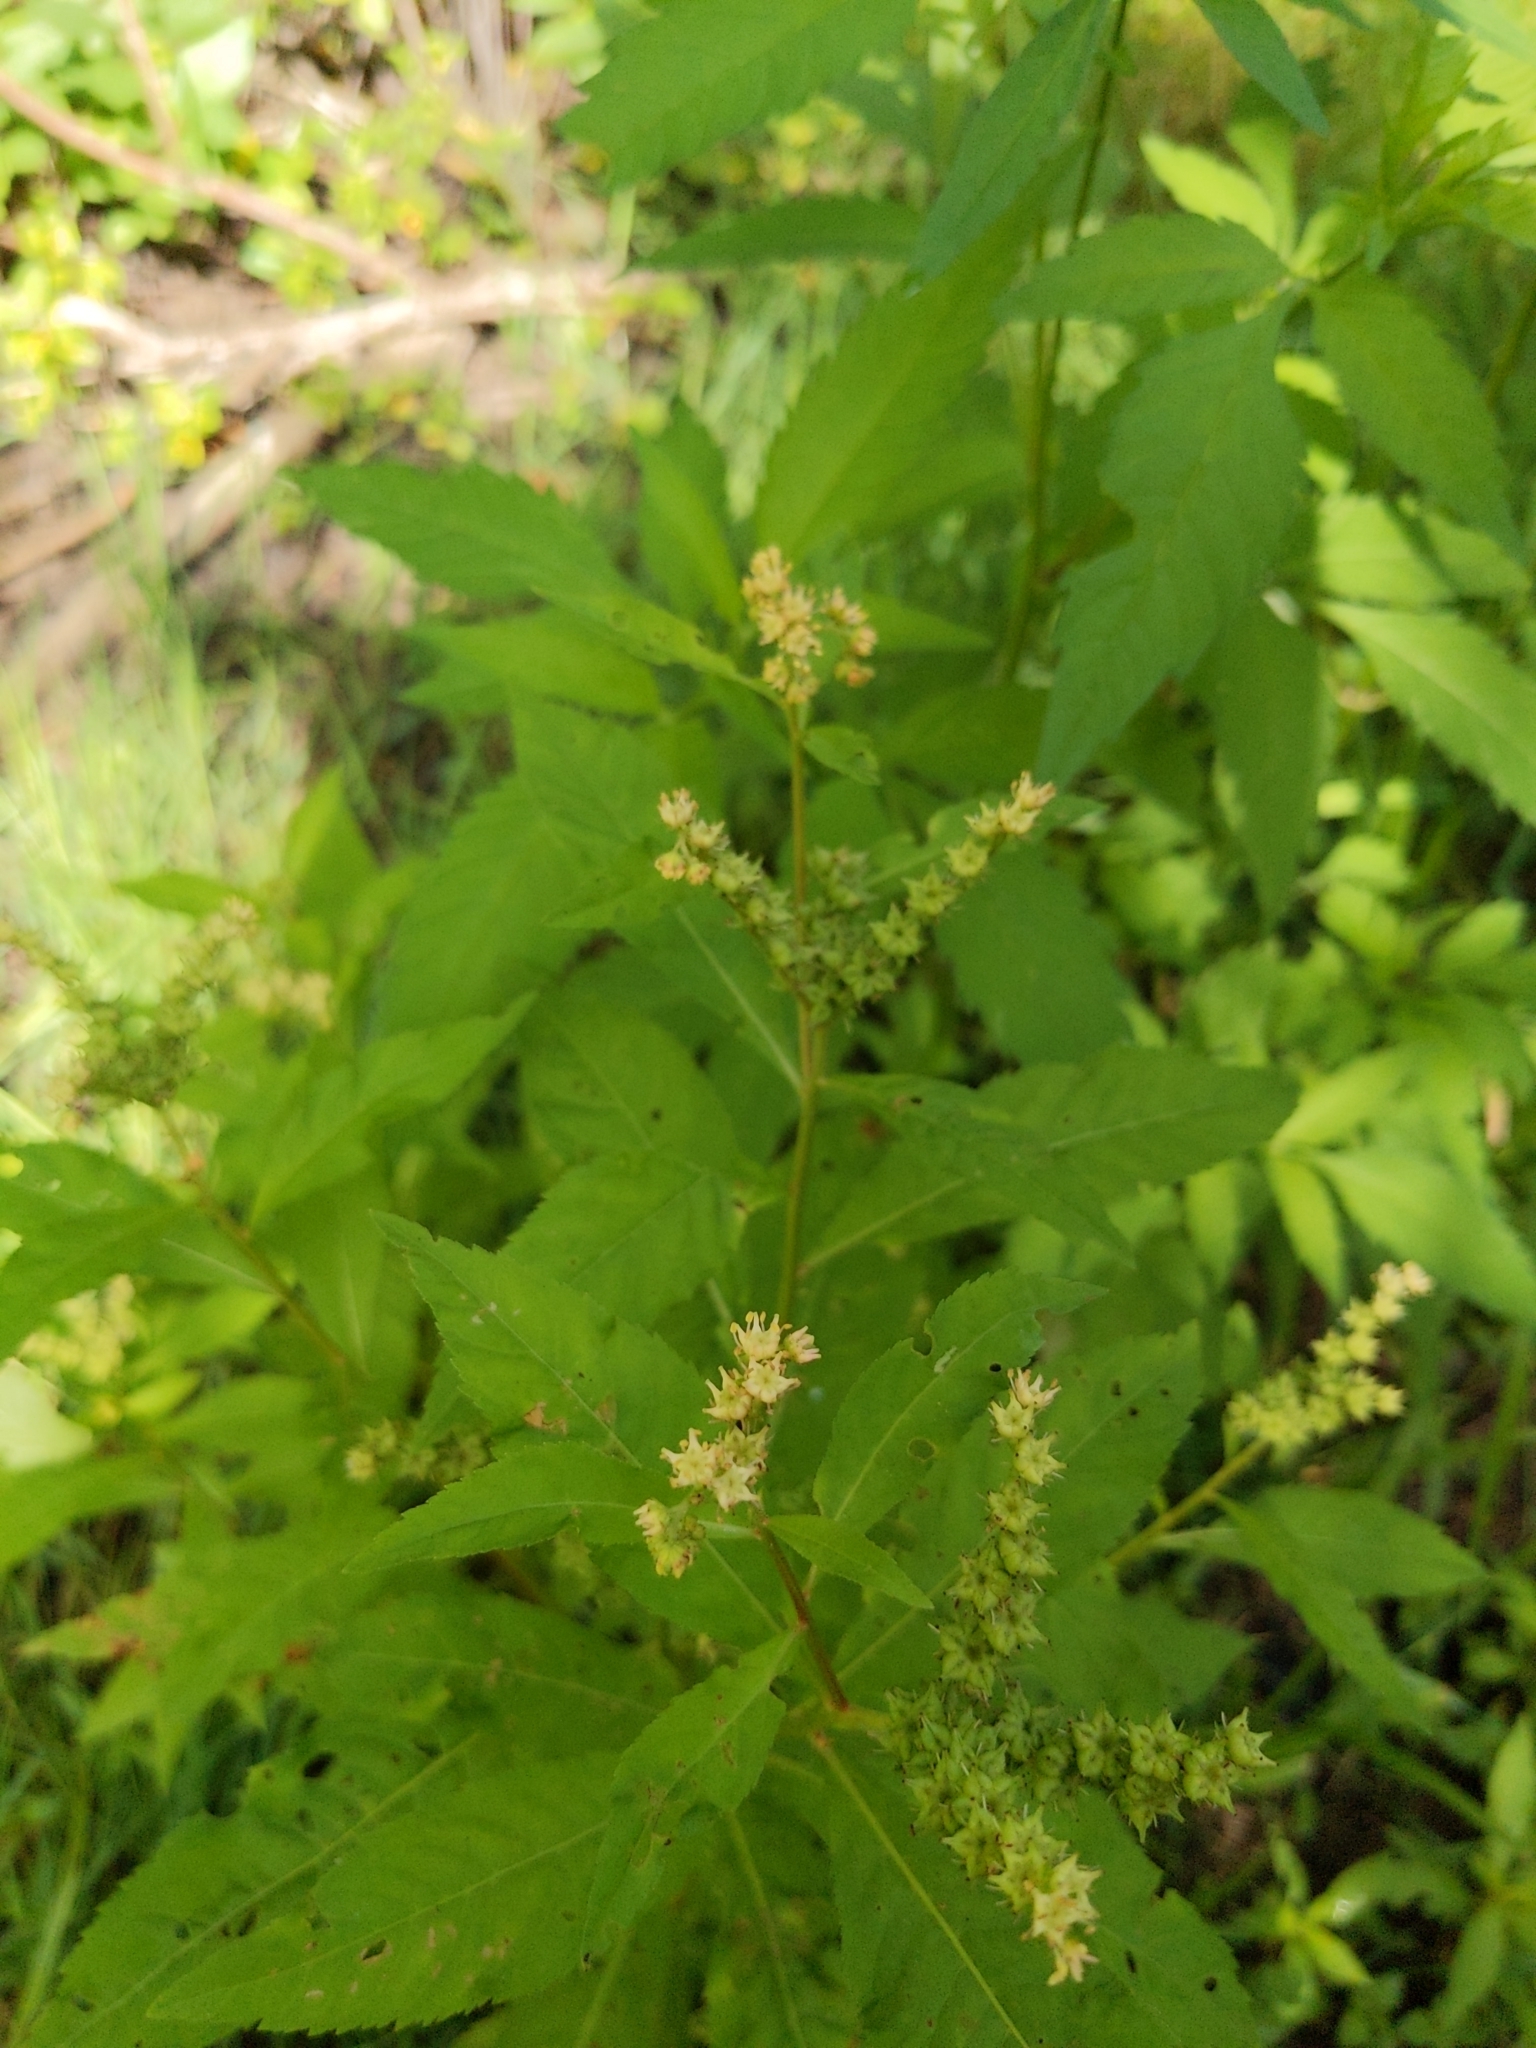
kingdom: Plantae
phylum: Tracheophyta
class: Magnoliopsida
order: Saxifragales
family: Penthoraceae
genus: Penthorum
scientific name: Penthorum sedoides
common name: Ditch stonecrop
